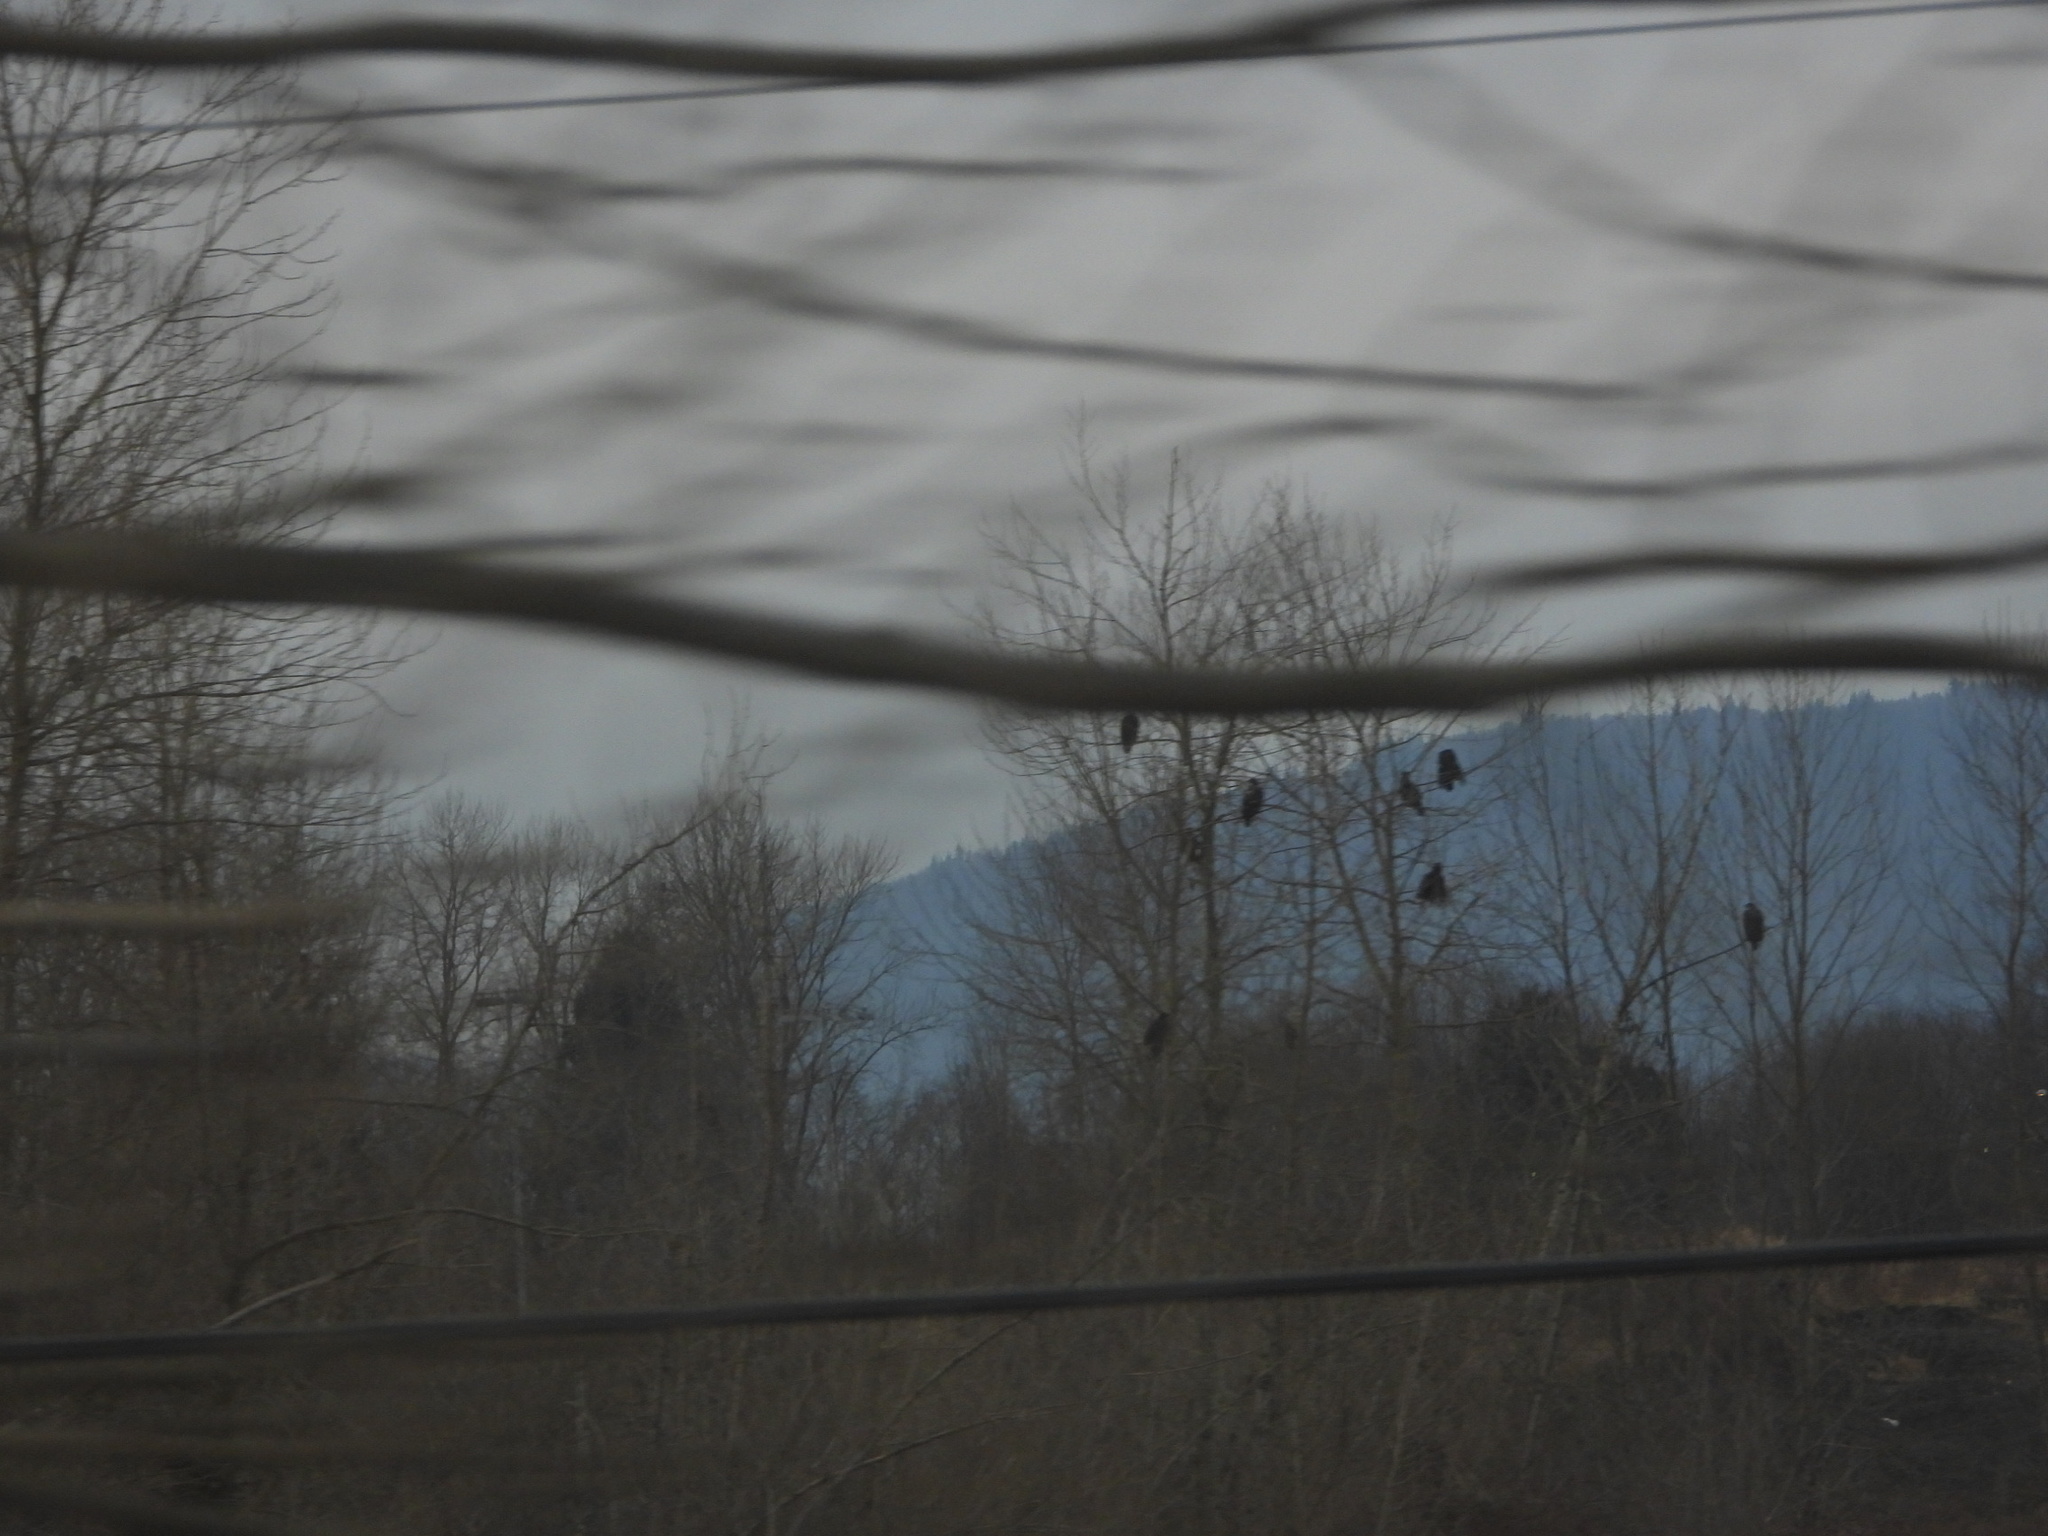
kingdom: Animalia
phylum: Chordata
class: Aves
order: Accipitriformes
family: Accipitridae
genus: Haliaeetus
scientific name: Haliaeetus leucocephalus
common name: Bald eagle
